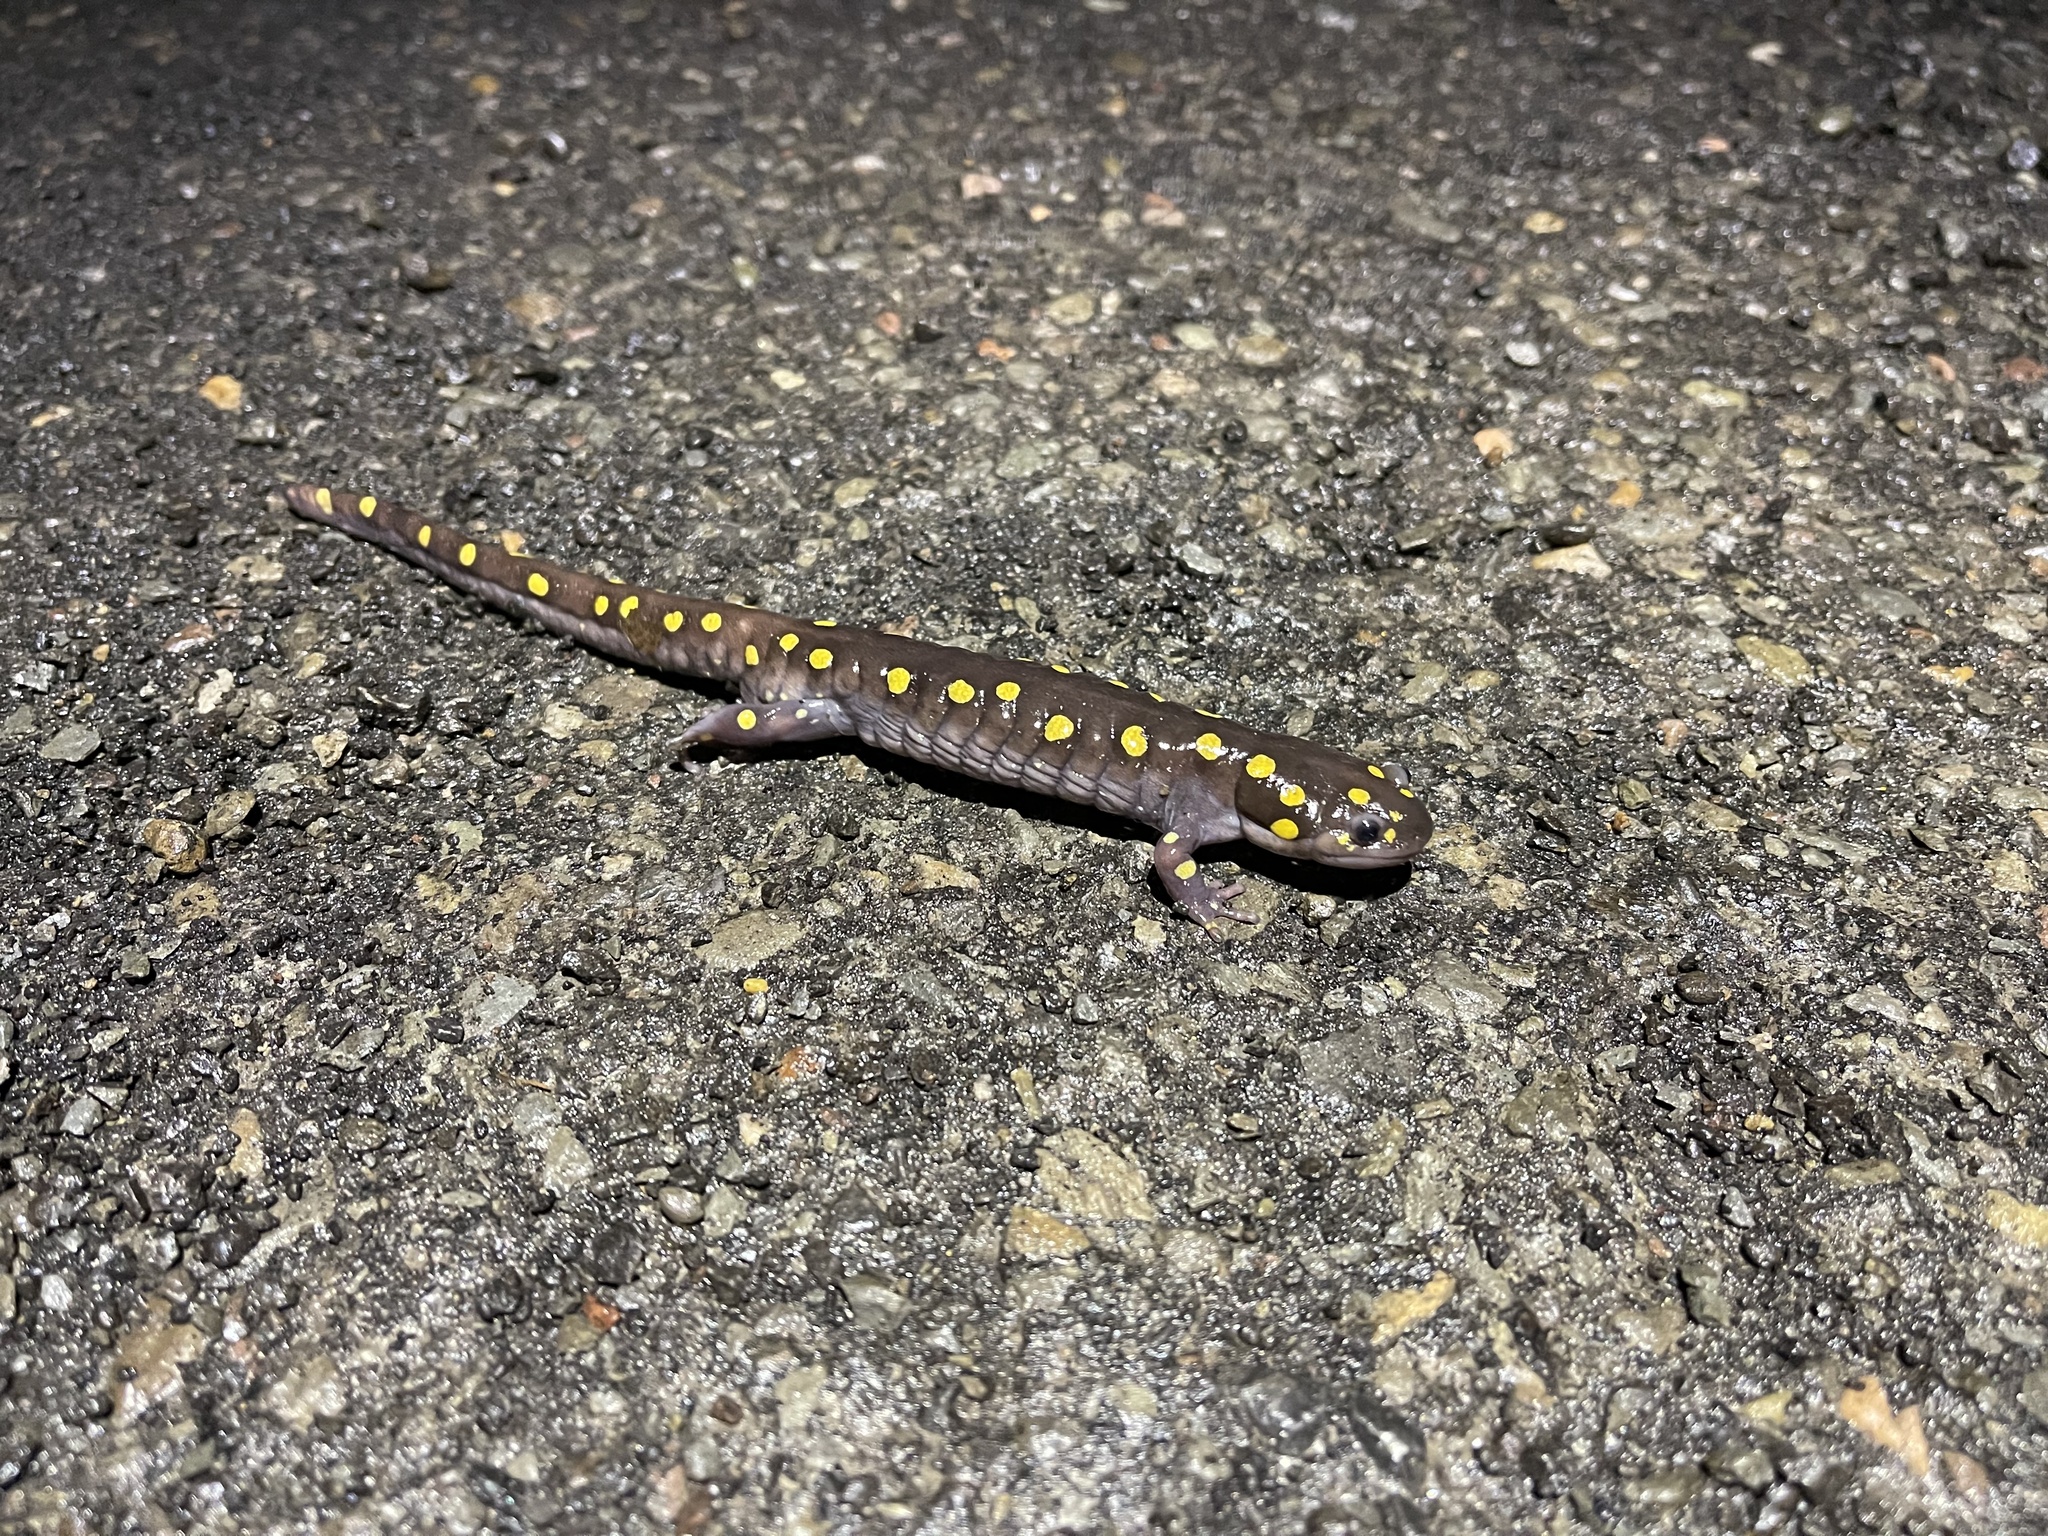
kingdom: Animalia
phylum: Chordata
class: Amphibia
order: Caudata
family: Ambystomatidae
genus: Ambystoma
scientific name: Ambystoma maculatum
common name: Spotted salamander
